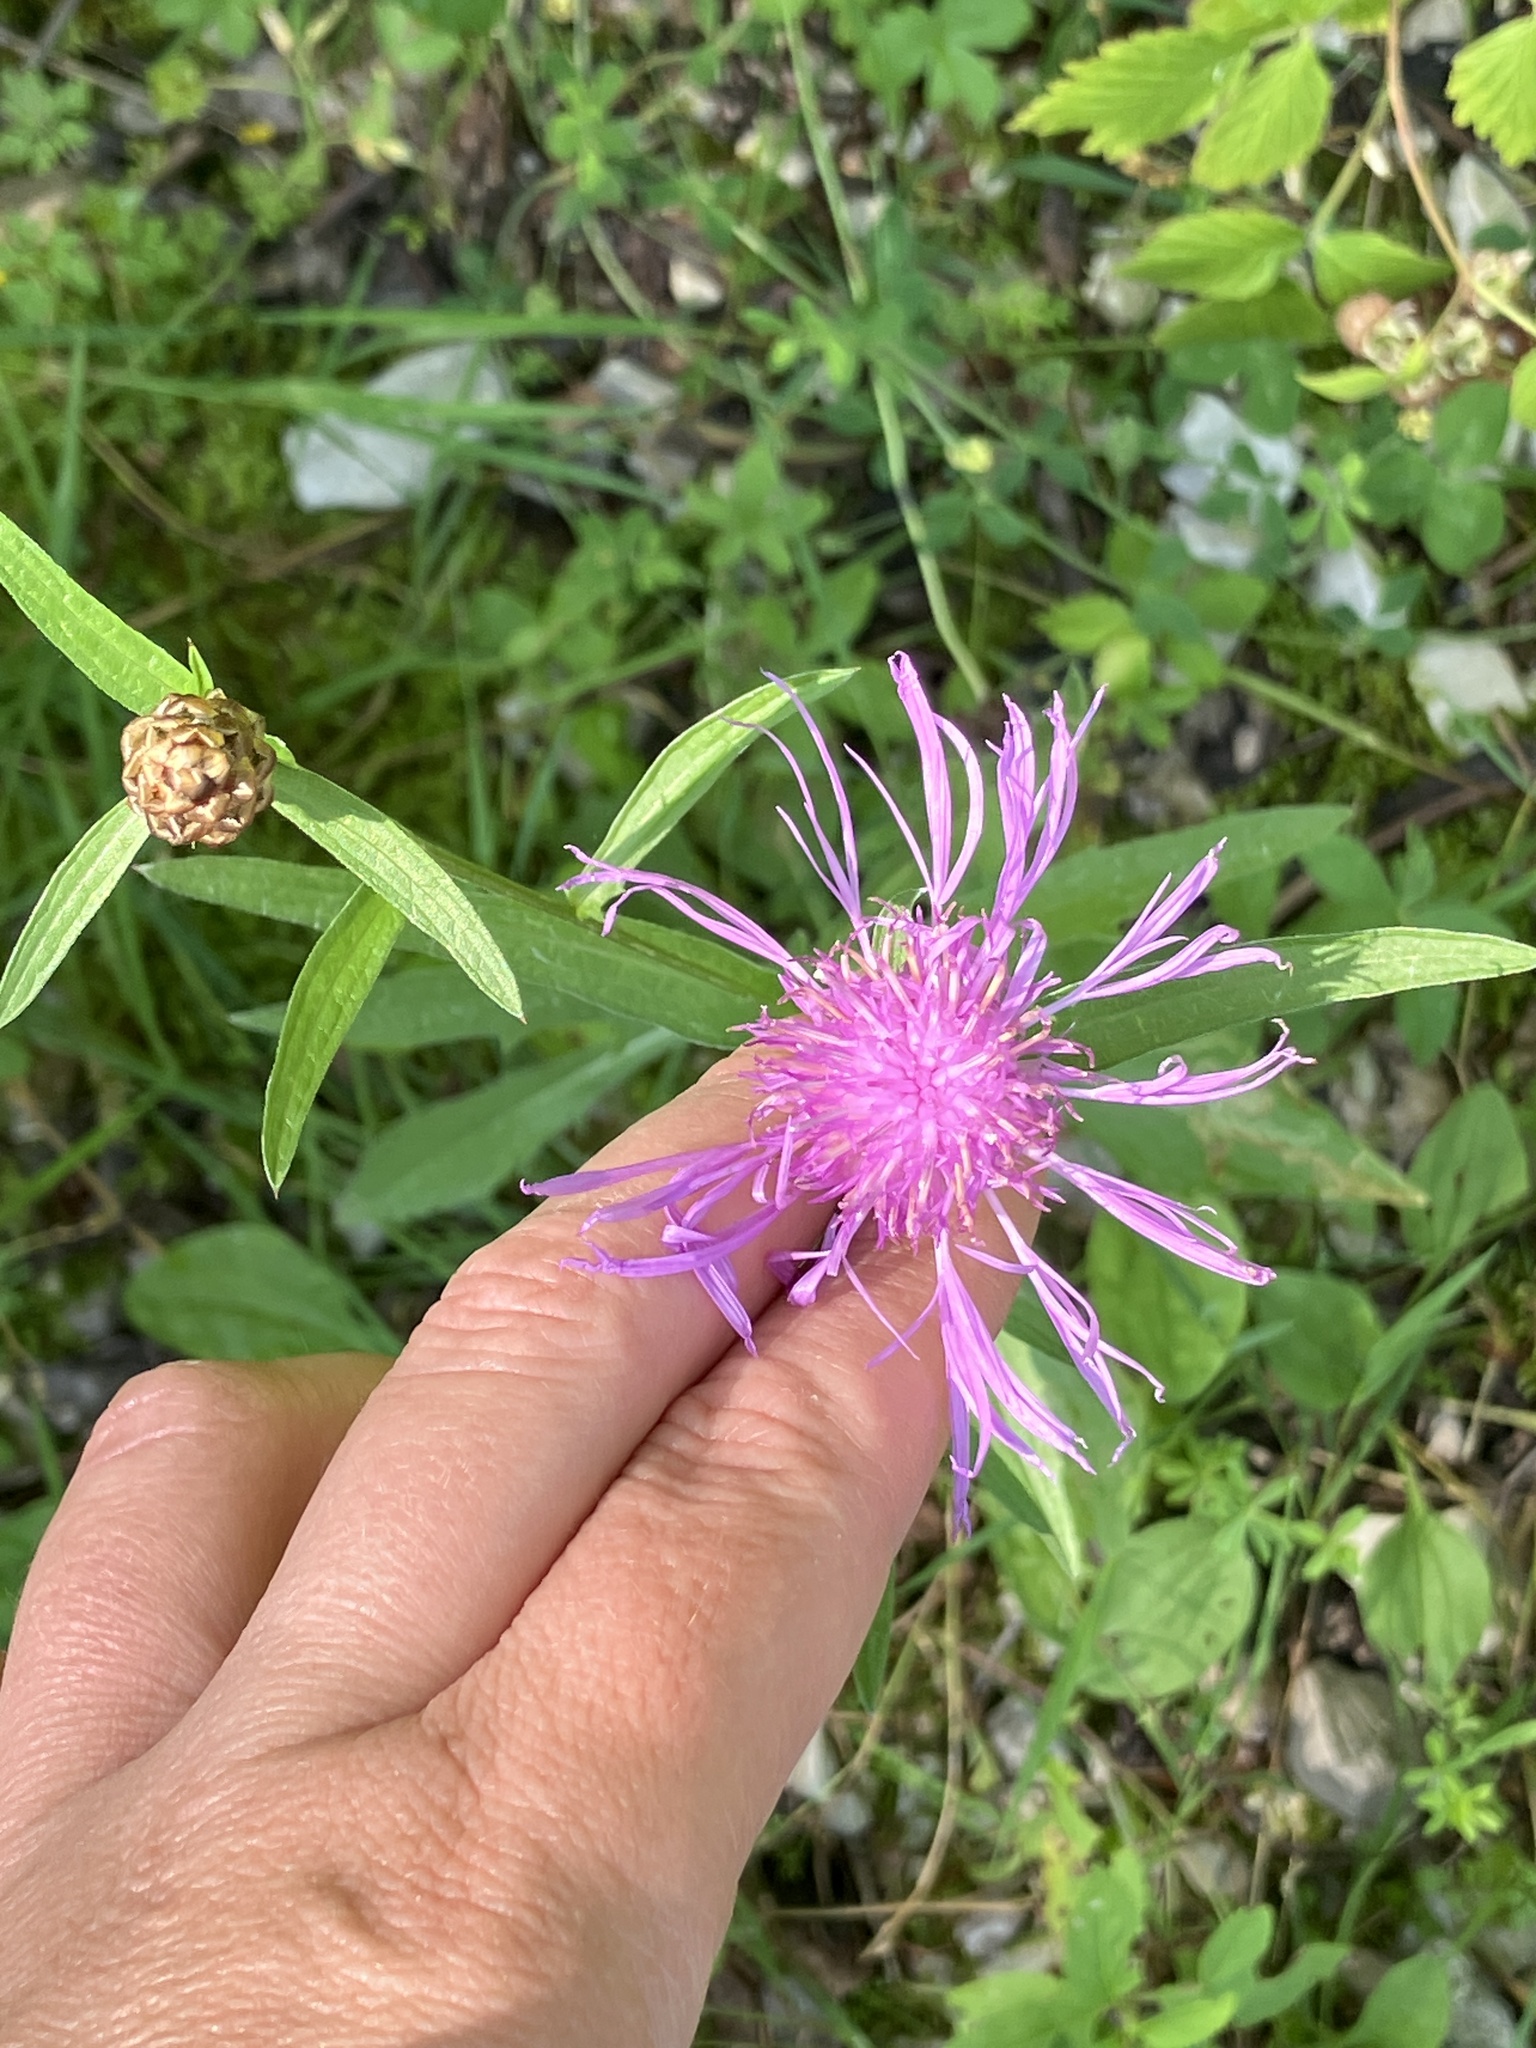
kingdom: Plantae
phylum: Tracheophyta
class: Magnoliopsida
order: Asterales
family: Asteraceae
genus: Centaurea
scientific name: Centaurea jacea
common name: Brown knapweed
